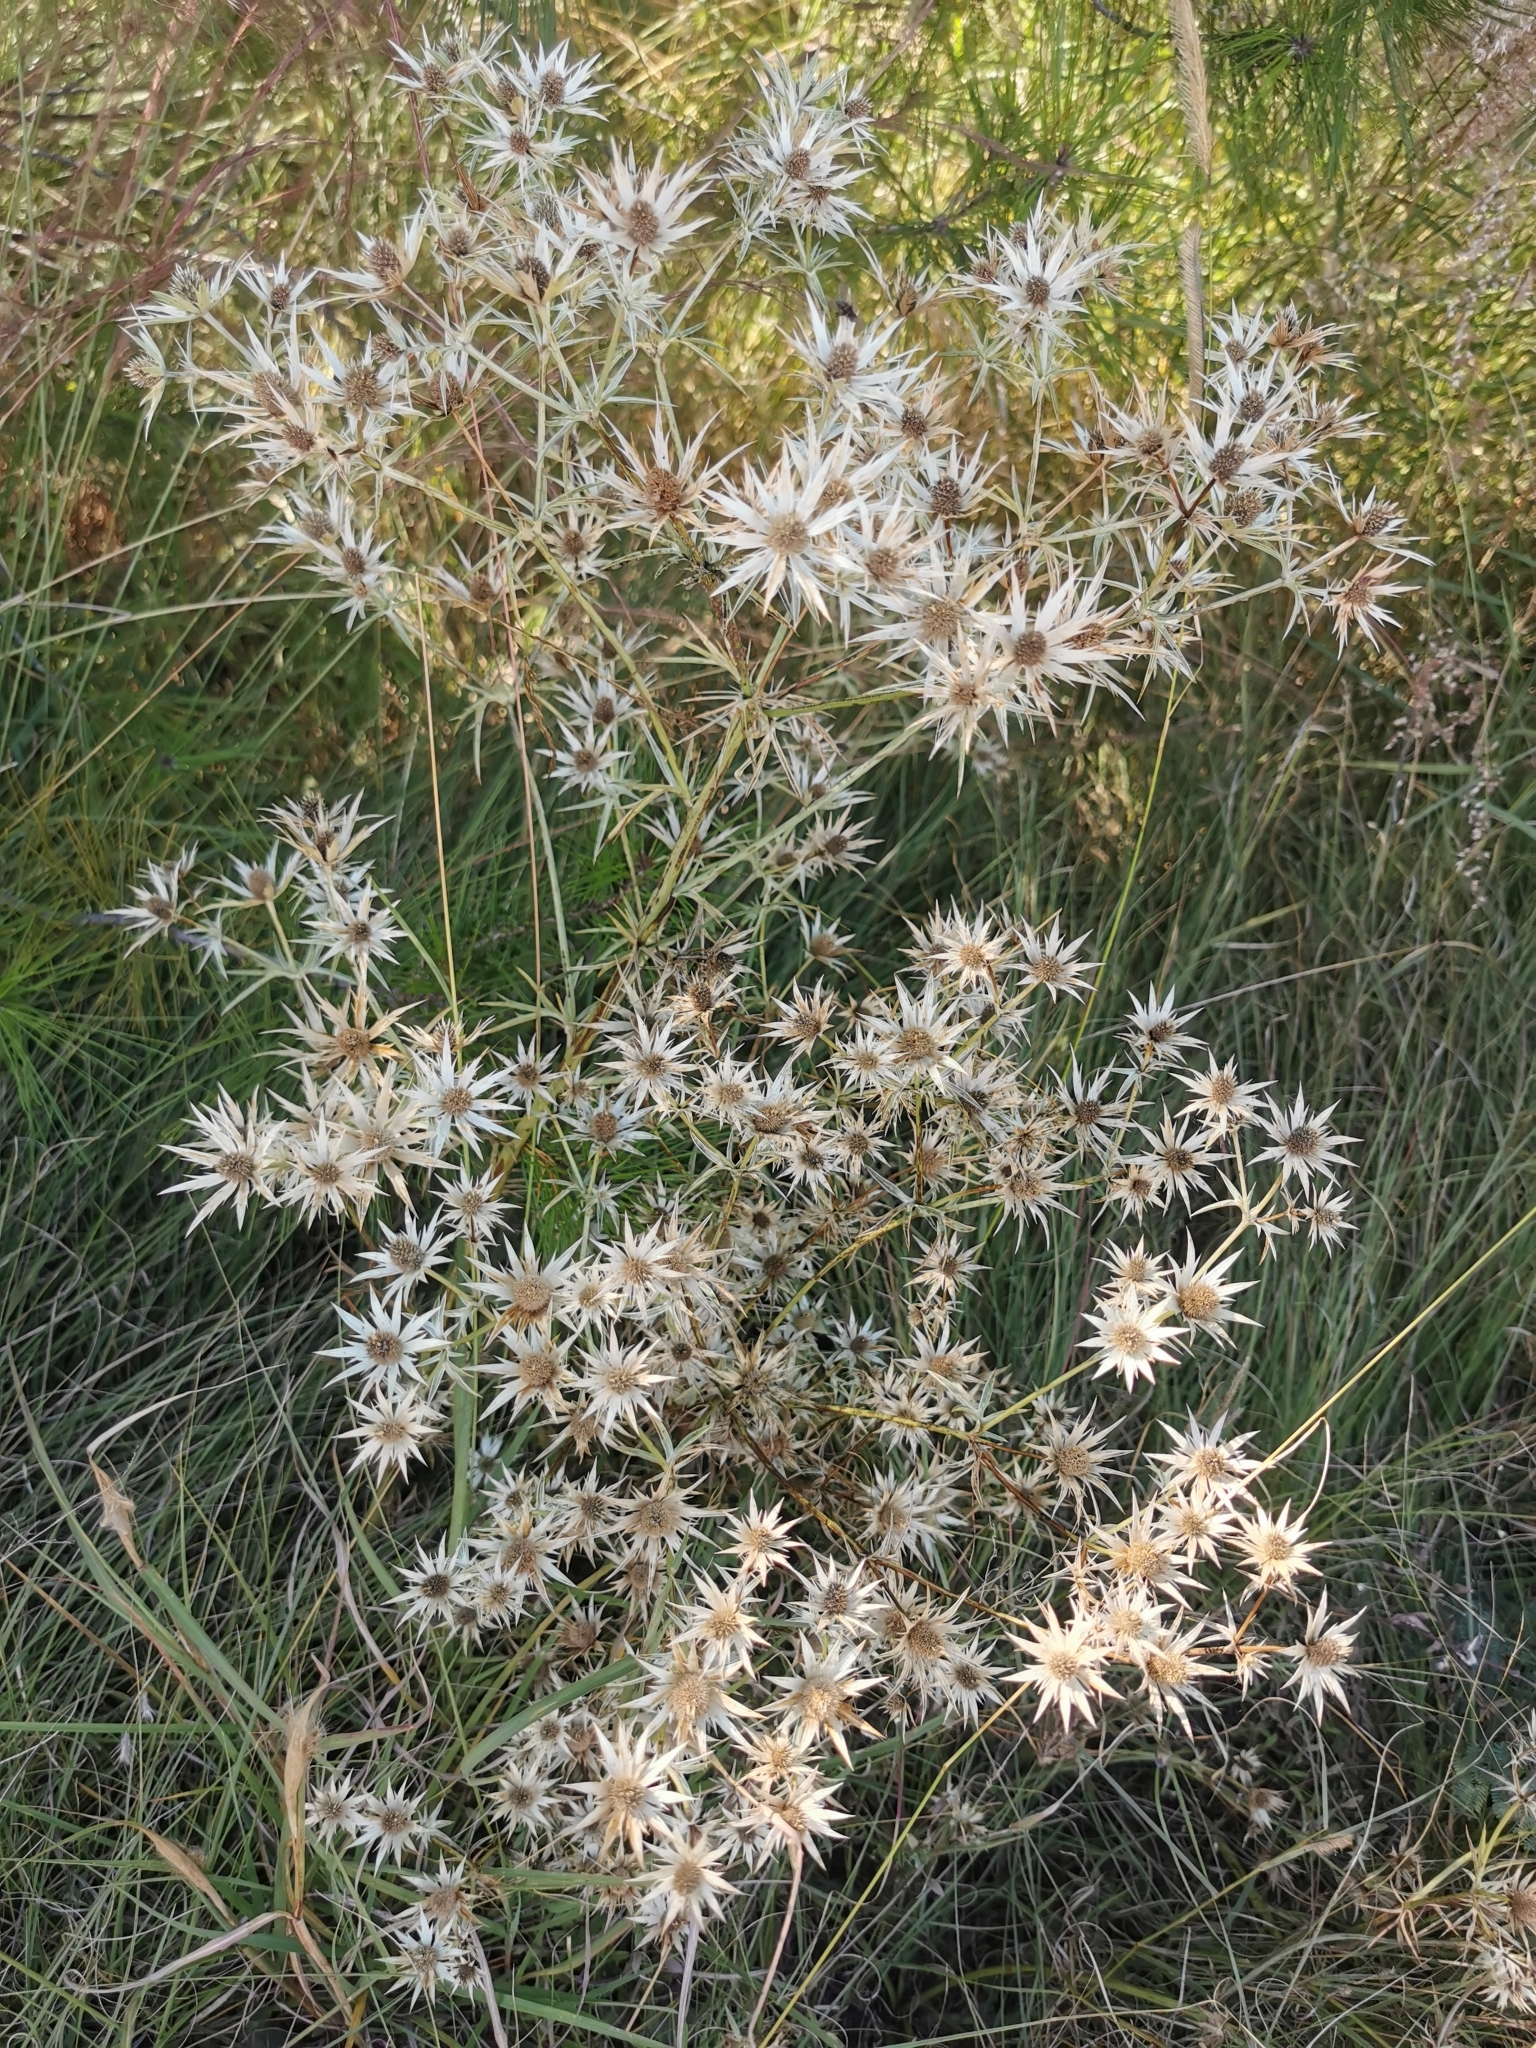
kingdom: Plantae
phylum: Tracheophyta
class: Magnoliopsida
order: Apiales
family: Apiaceae
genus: Eryngium
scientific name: Eryngium heterophyllum
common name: Mexican thistle
